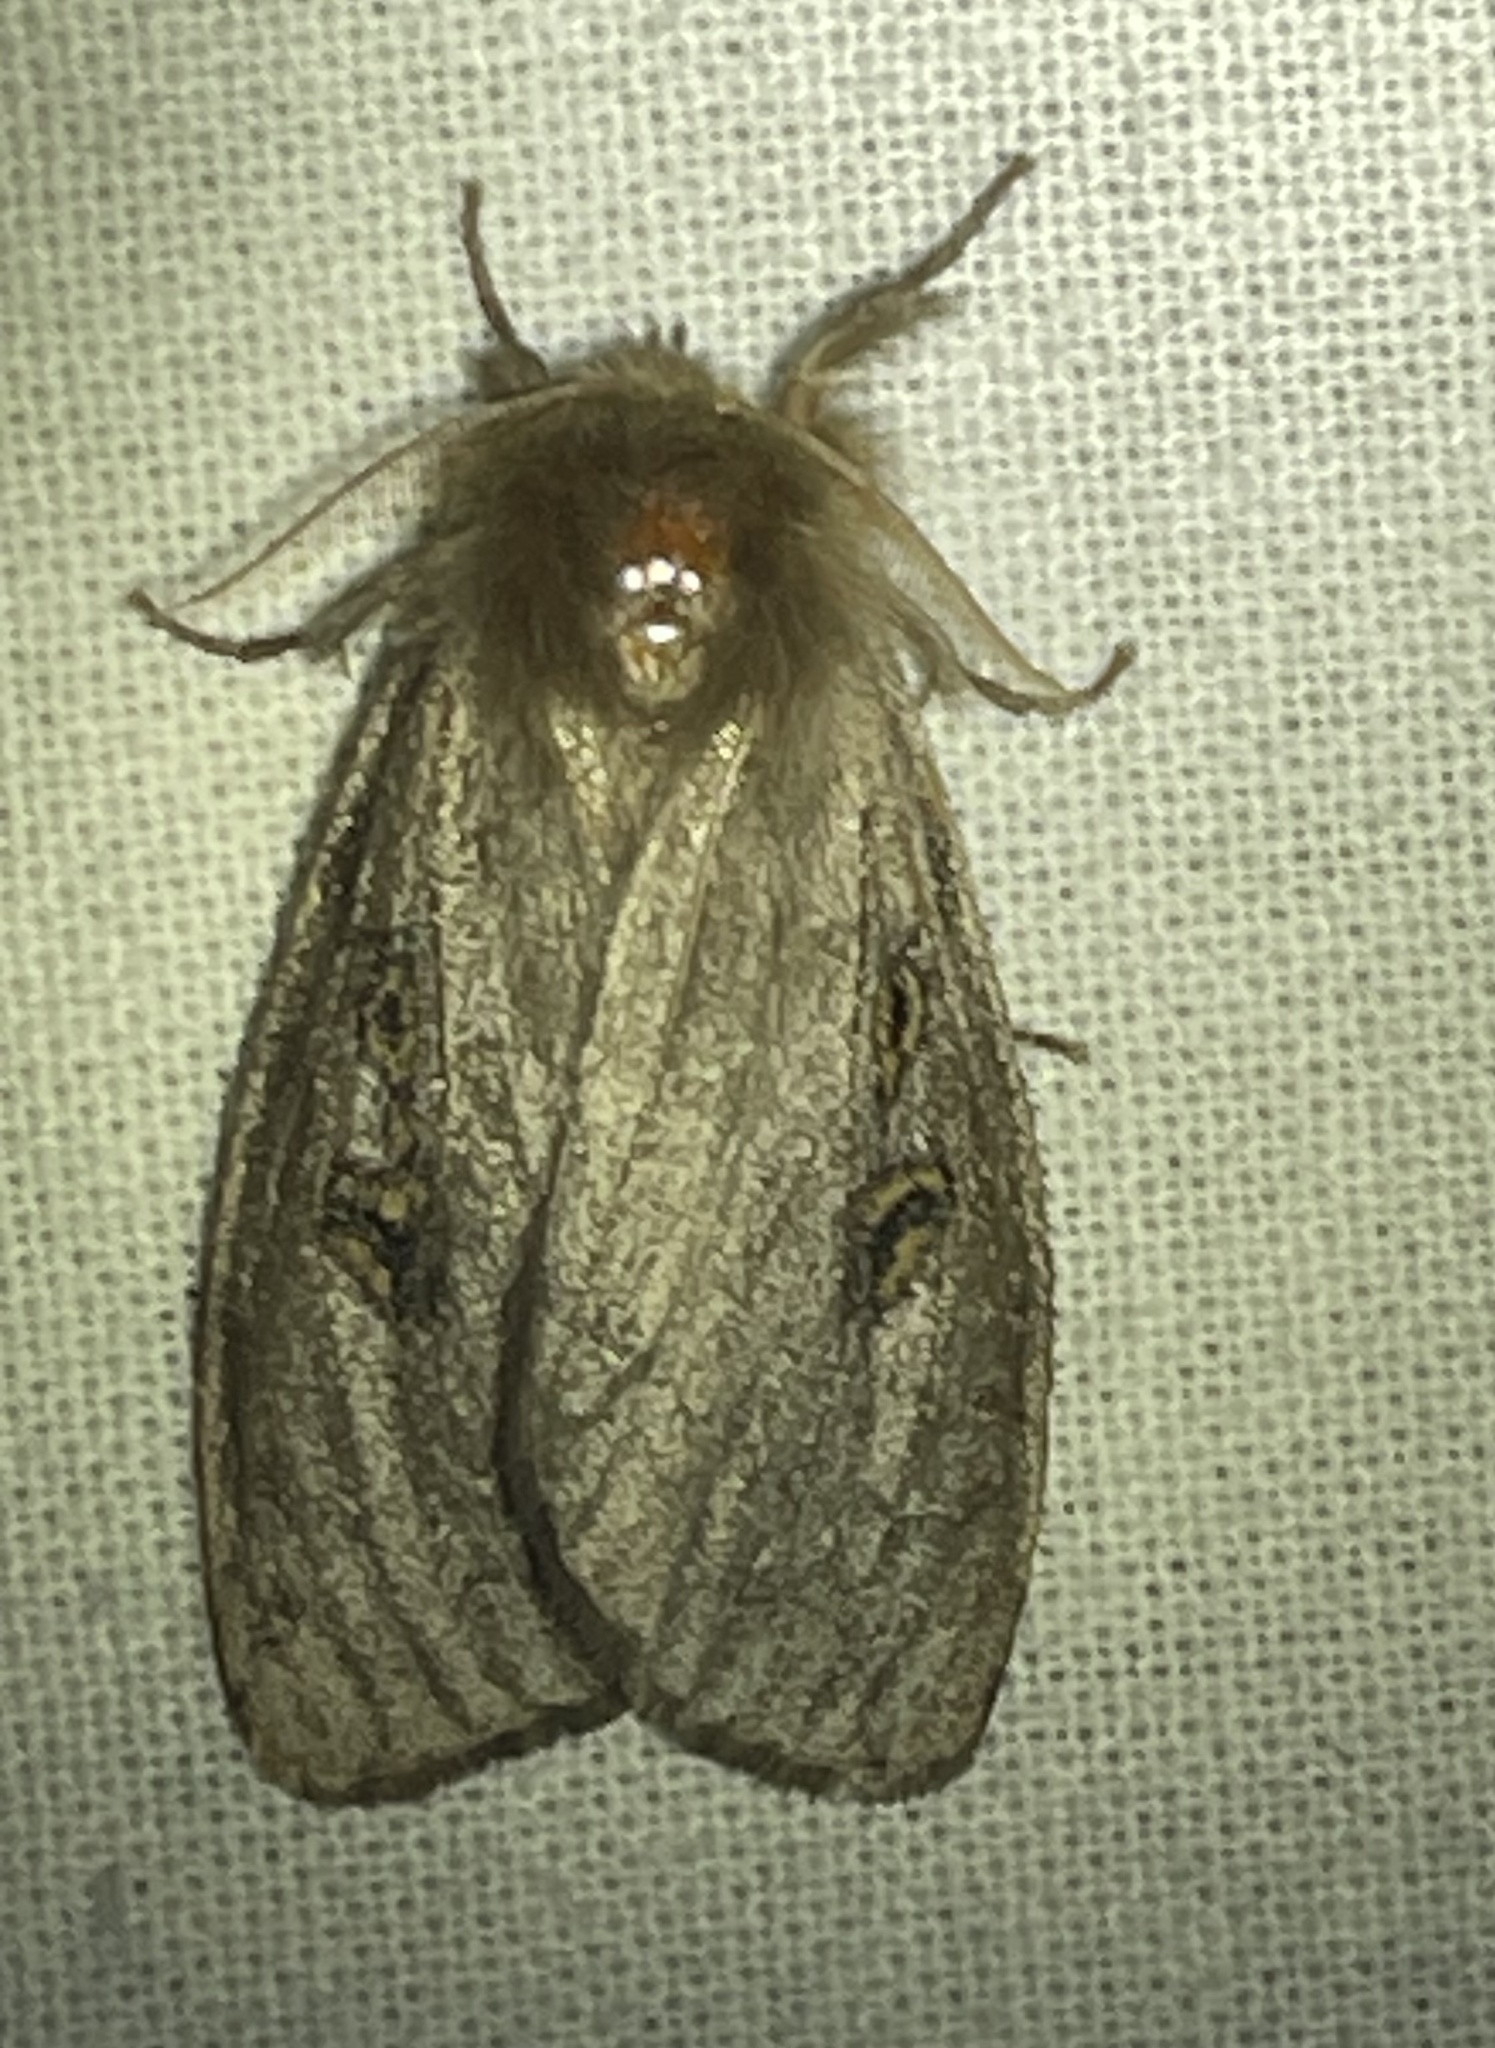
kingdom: Animalia
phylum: Arthropoda
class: Insecta
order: Lepidoptera
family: Erebidae
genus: Leptocneria
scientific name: Leptocneria reducta
